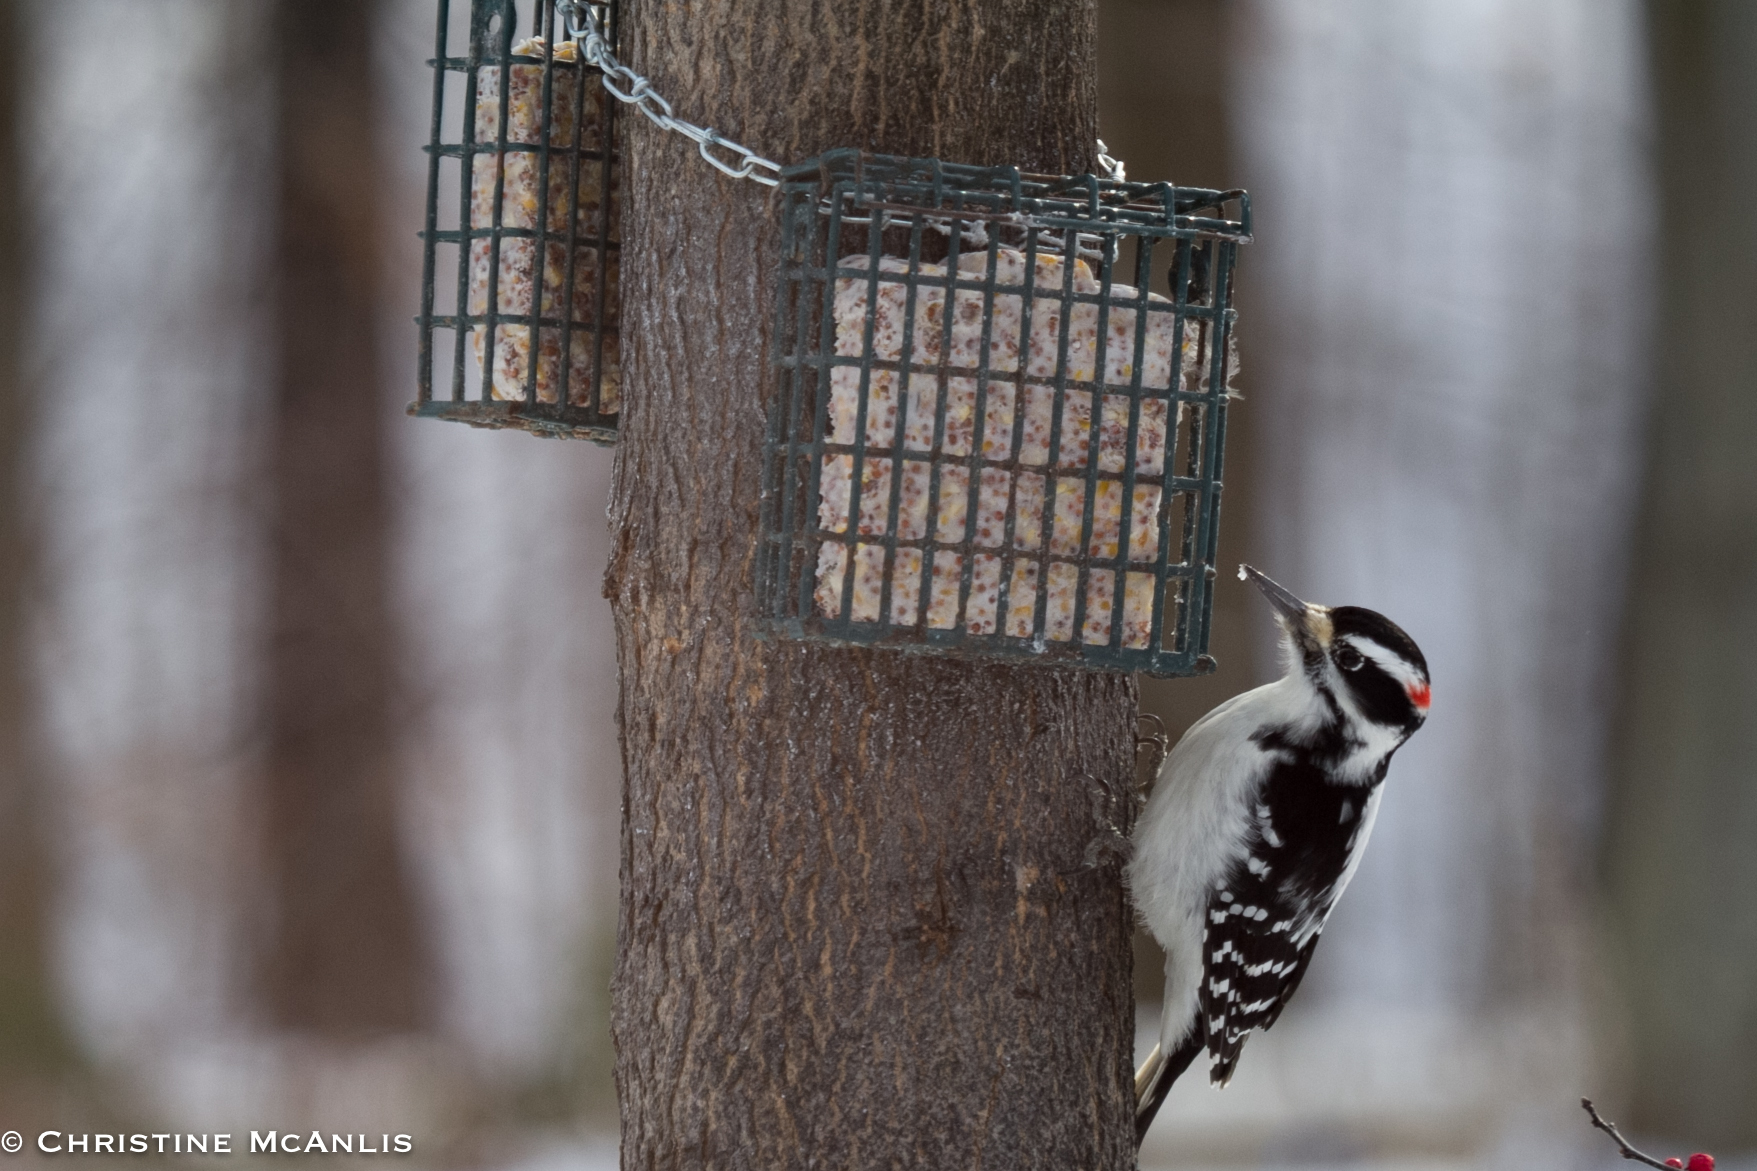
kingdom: Animalia
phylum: Chordata
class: Aves
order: Piciformes
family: Picidae
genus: Leuconotopicus
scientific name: Leuconotopicus villosus
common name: Hairy woodpecker
